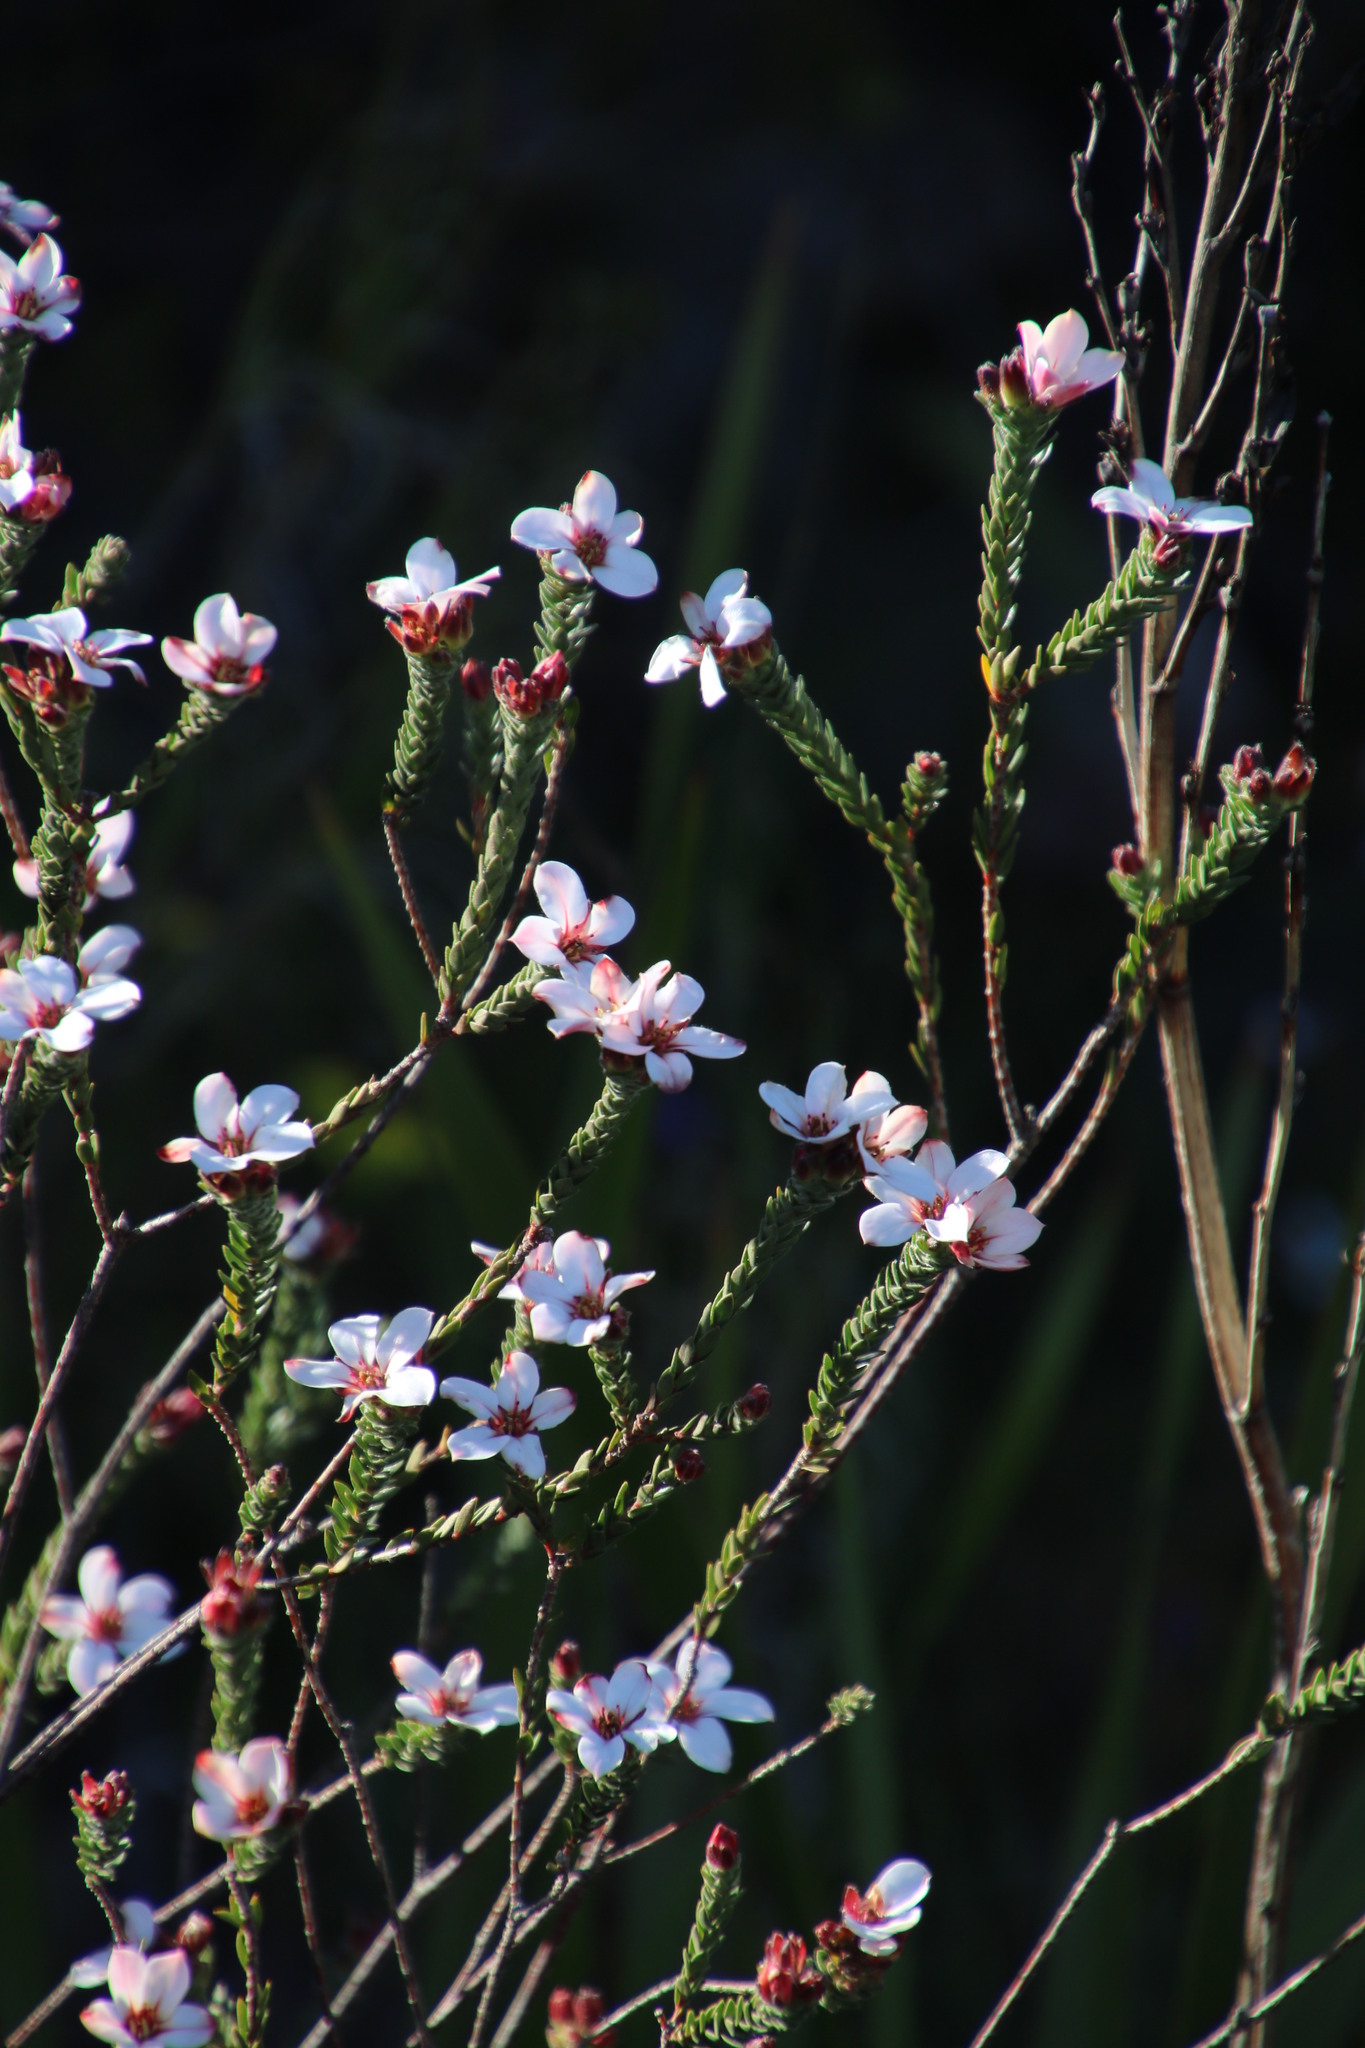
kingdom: Plantae
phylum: Tracheophyta
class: Magnoliopsida
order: Sapindales
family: Rutaceae
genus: Adenandra
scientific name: Adenandra villosa
